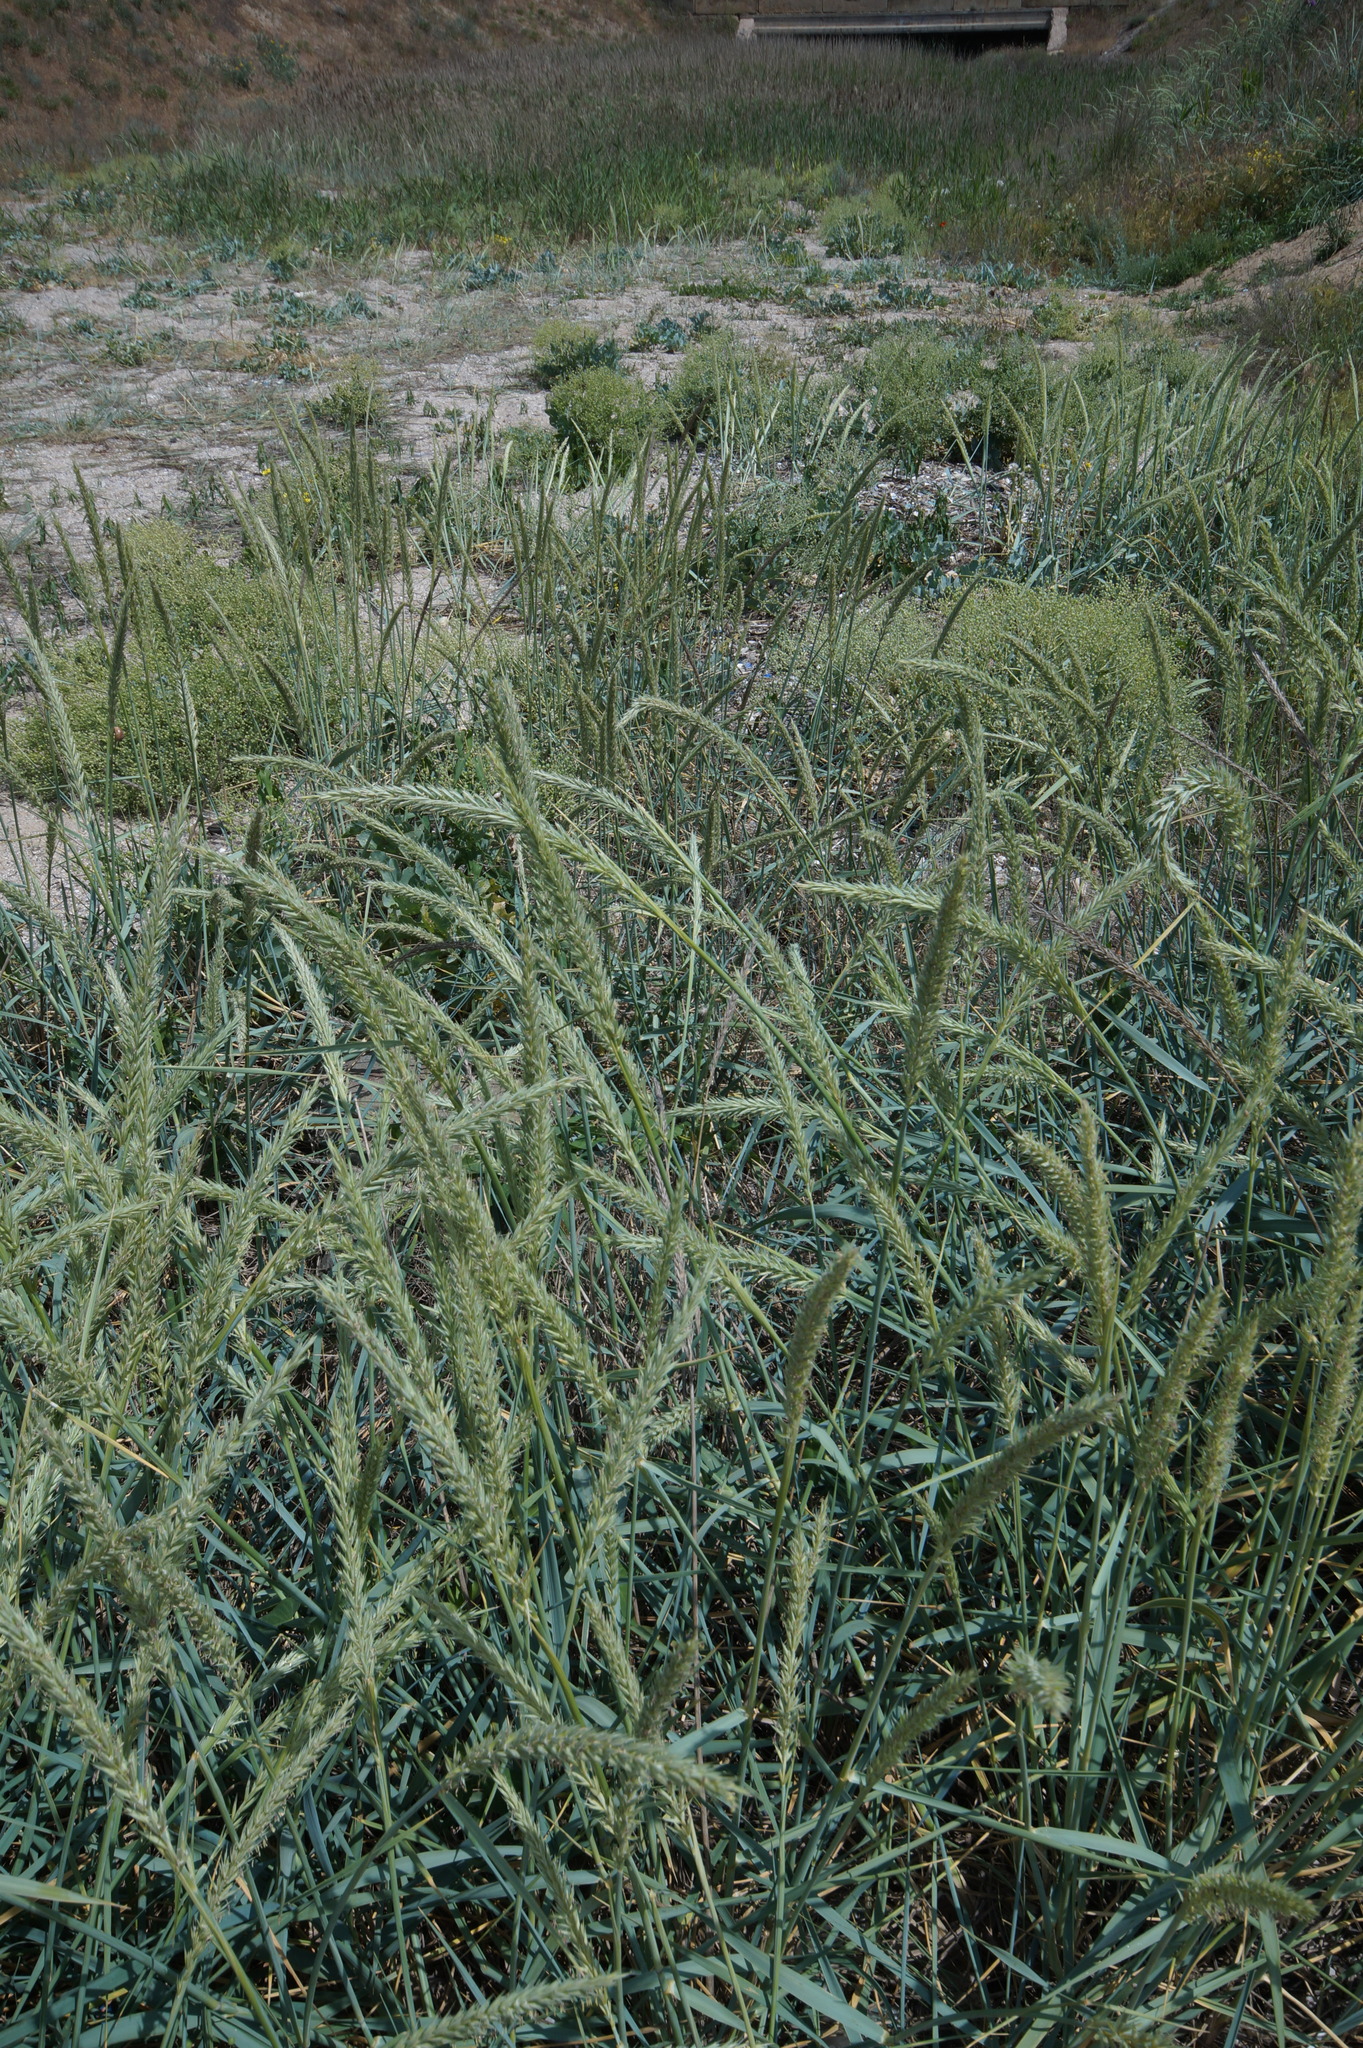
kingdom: Plantae
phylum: Tracheophyta
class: Liliopsida
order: Poales
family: Poaceae
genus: Leymus
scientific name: Leymus racemosus
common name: Mammoth wildrye
